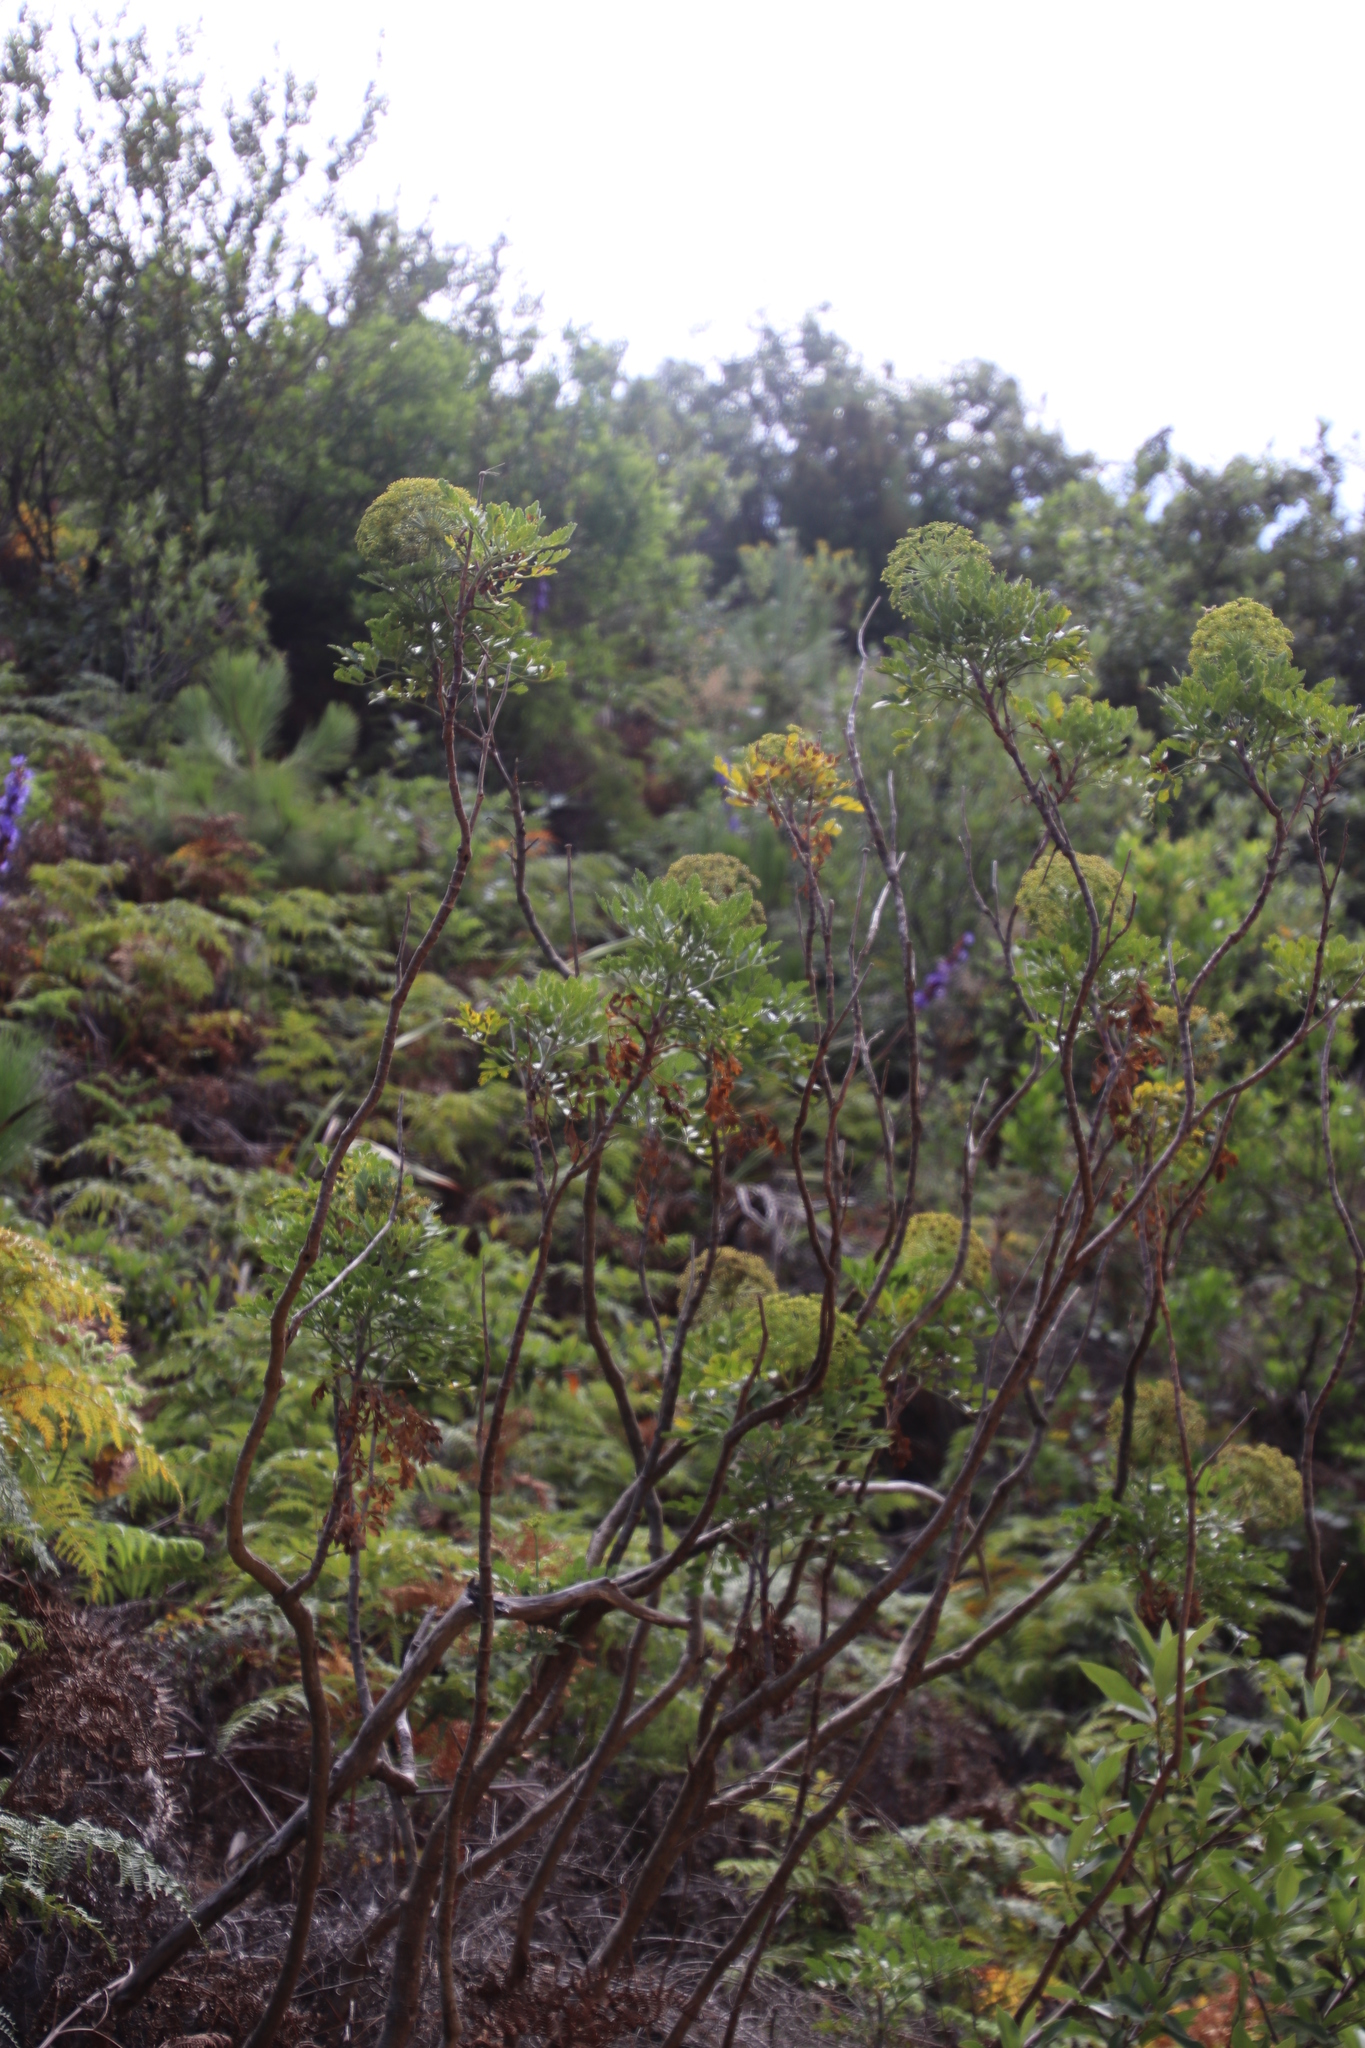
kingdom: Plantae
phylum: Tracheophyta
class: Magnoliopsida
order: Apiales
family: Apiaceae
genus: Notobubon
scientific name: Notobubon galbanum
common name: Blisterbush
